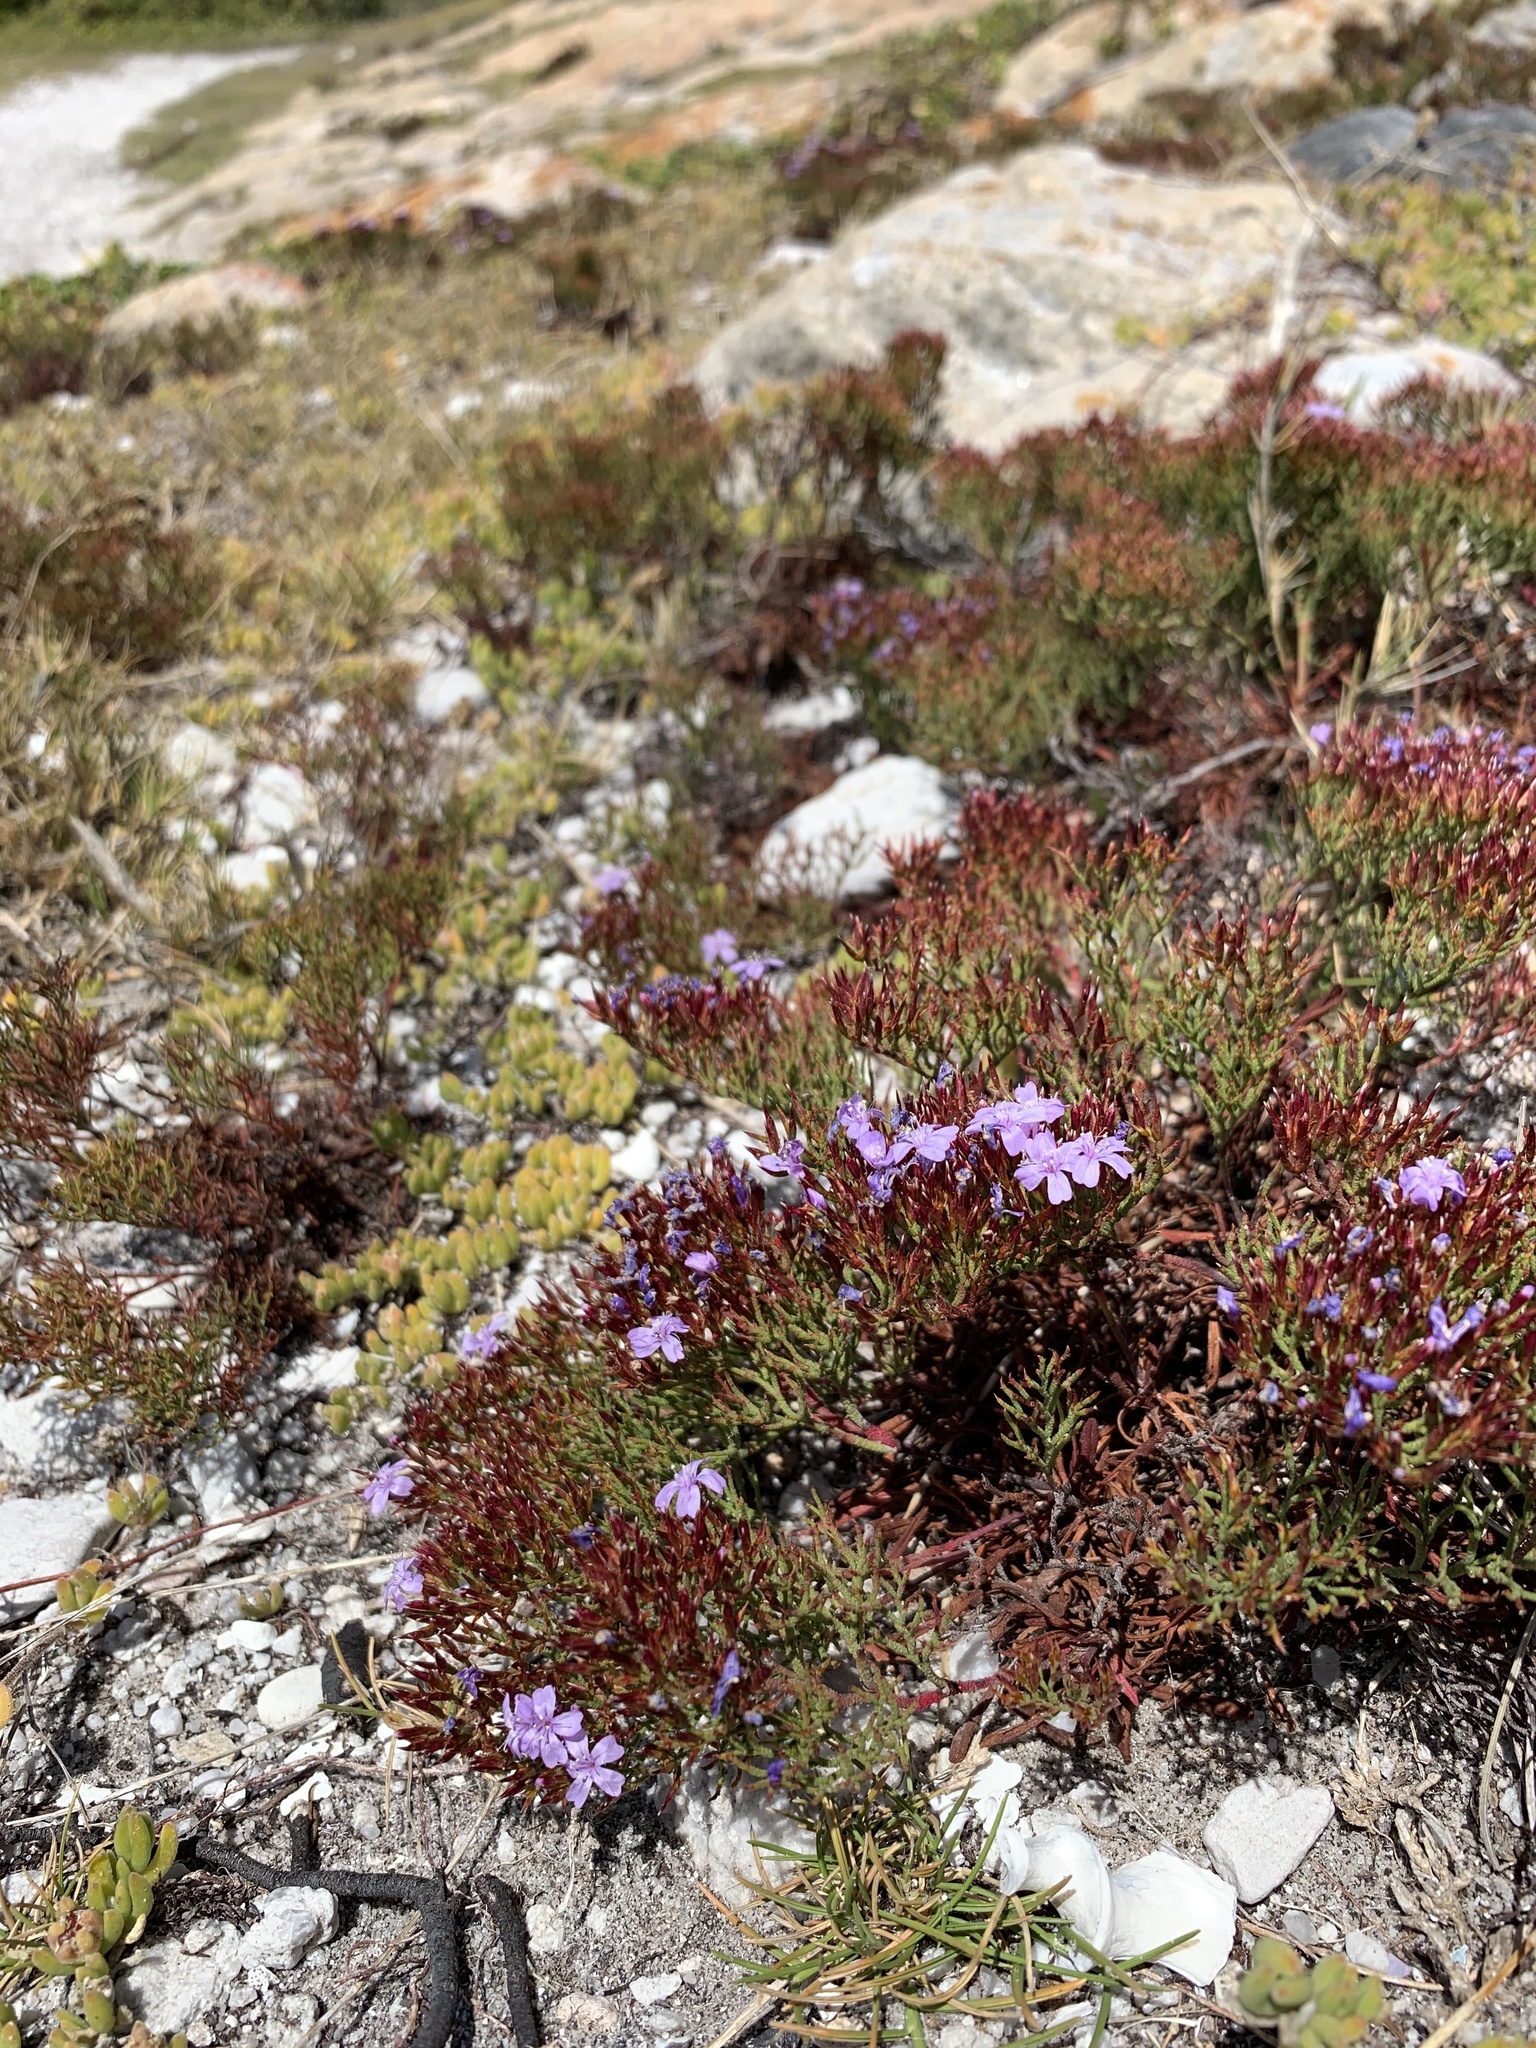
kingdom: Plantae
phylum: Tracheophyta
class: Magnoliopsida
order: Caryophyllales
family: Plumbaginaceae
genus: Limonium
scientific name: Limonium scabrum
